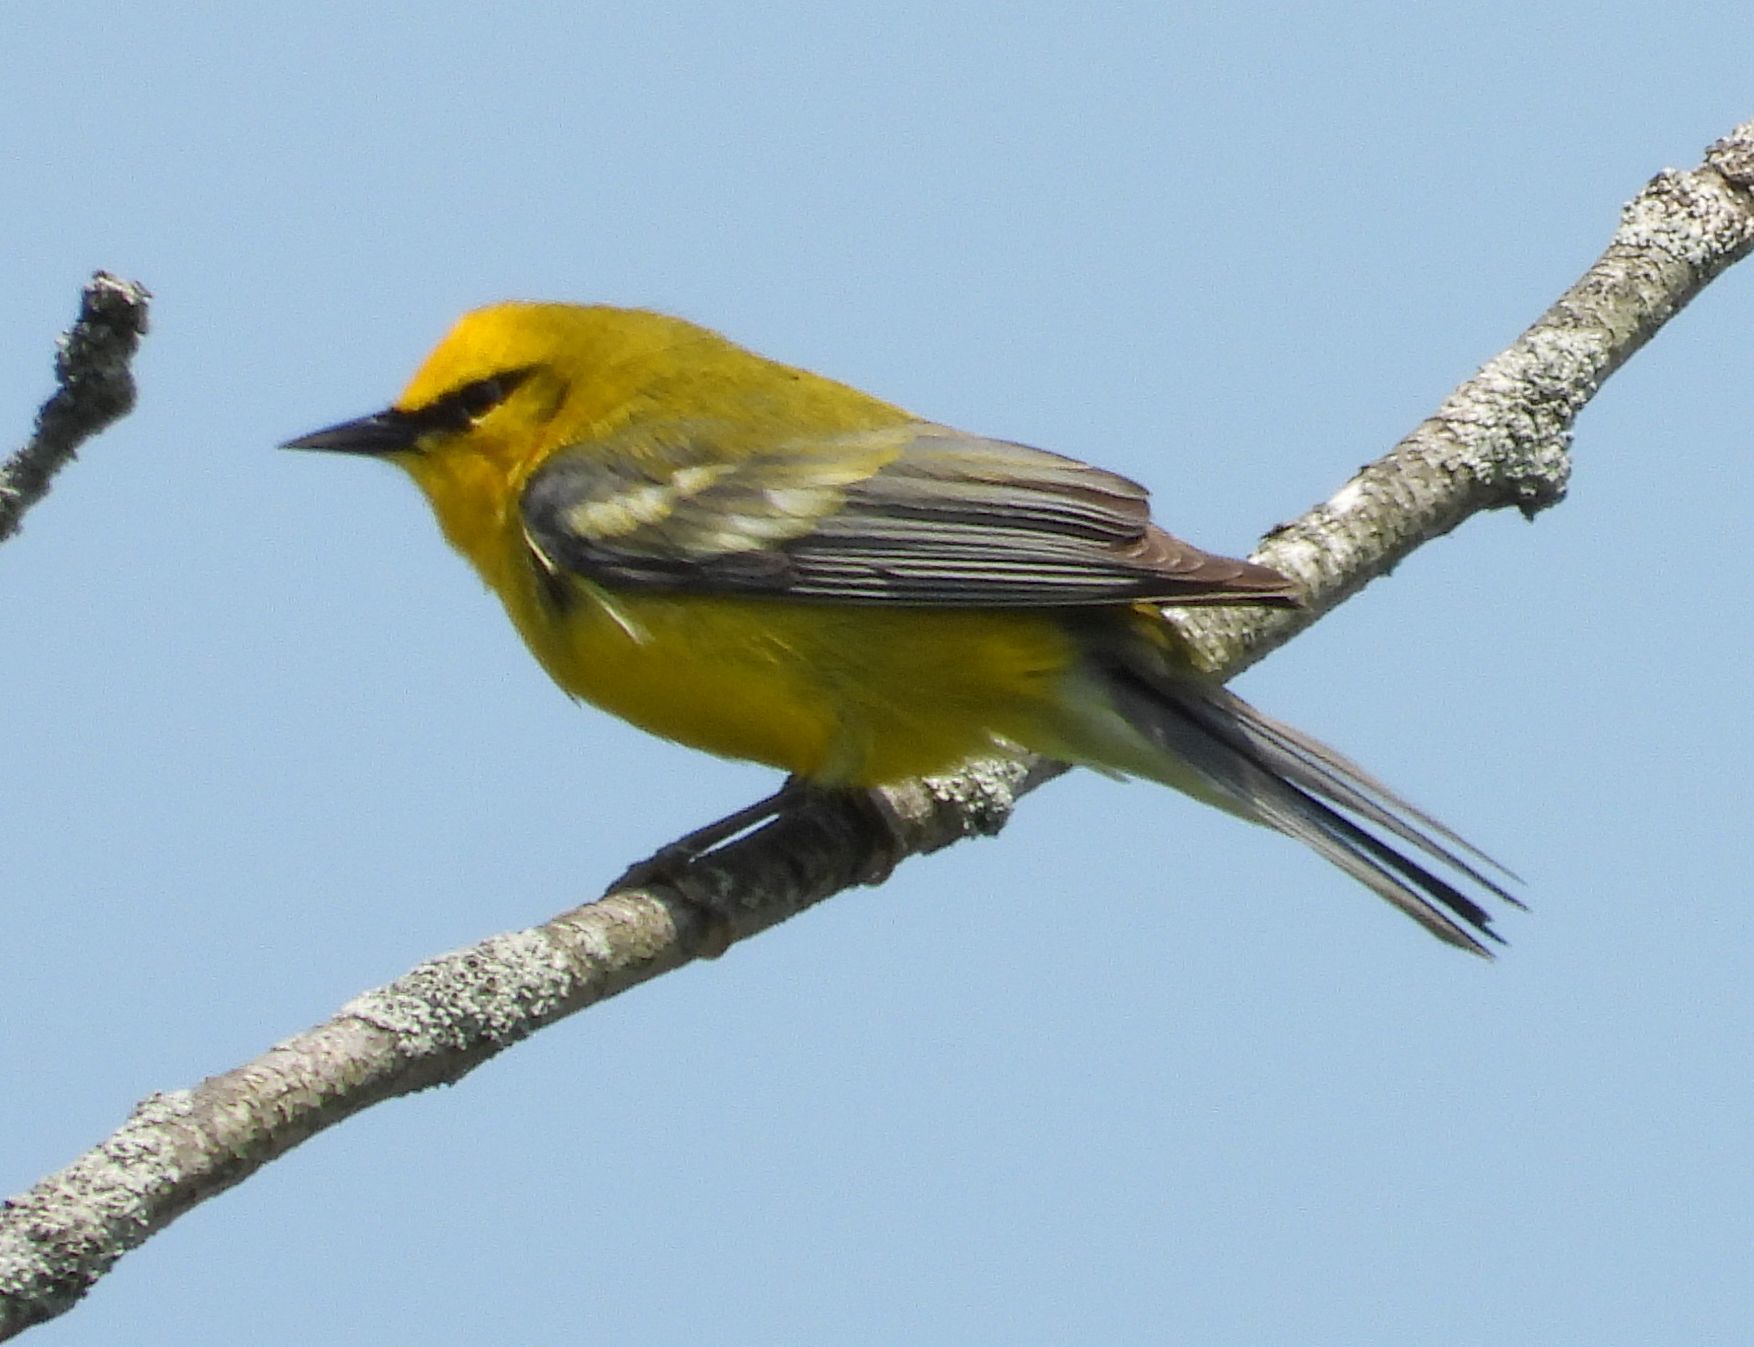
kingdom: Animalia
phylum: Chordata
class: Aves
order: Passeriformes
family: Parulidae
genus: Vermivora
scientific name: Vermivora cyanoptera
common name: Blue-winged warbler
